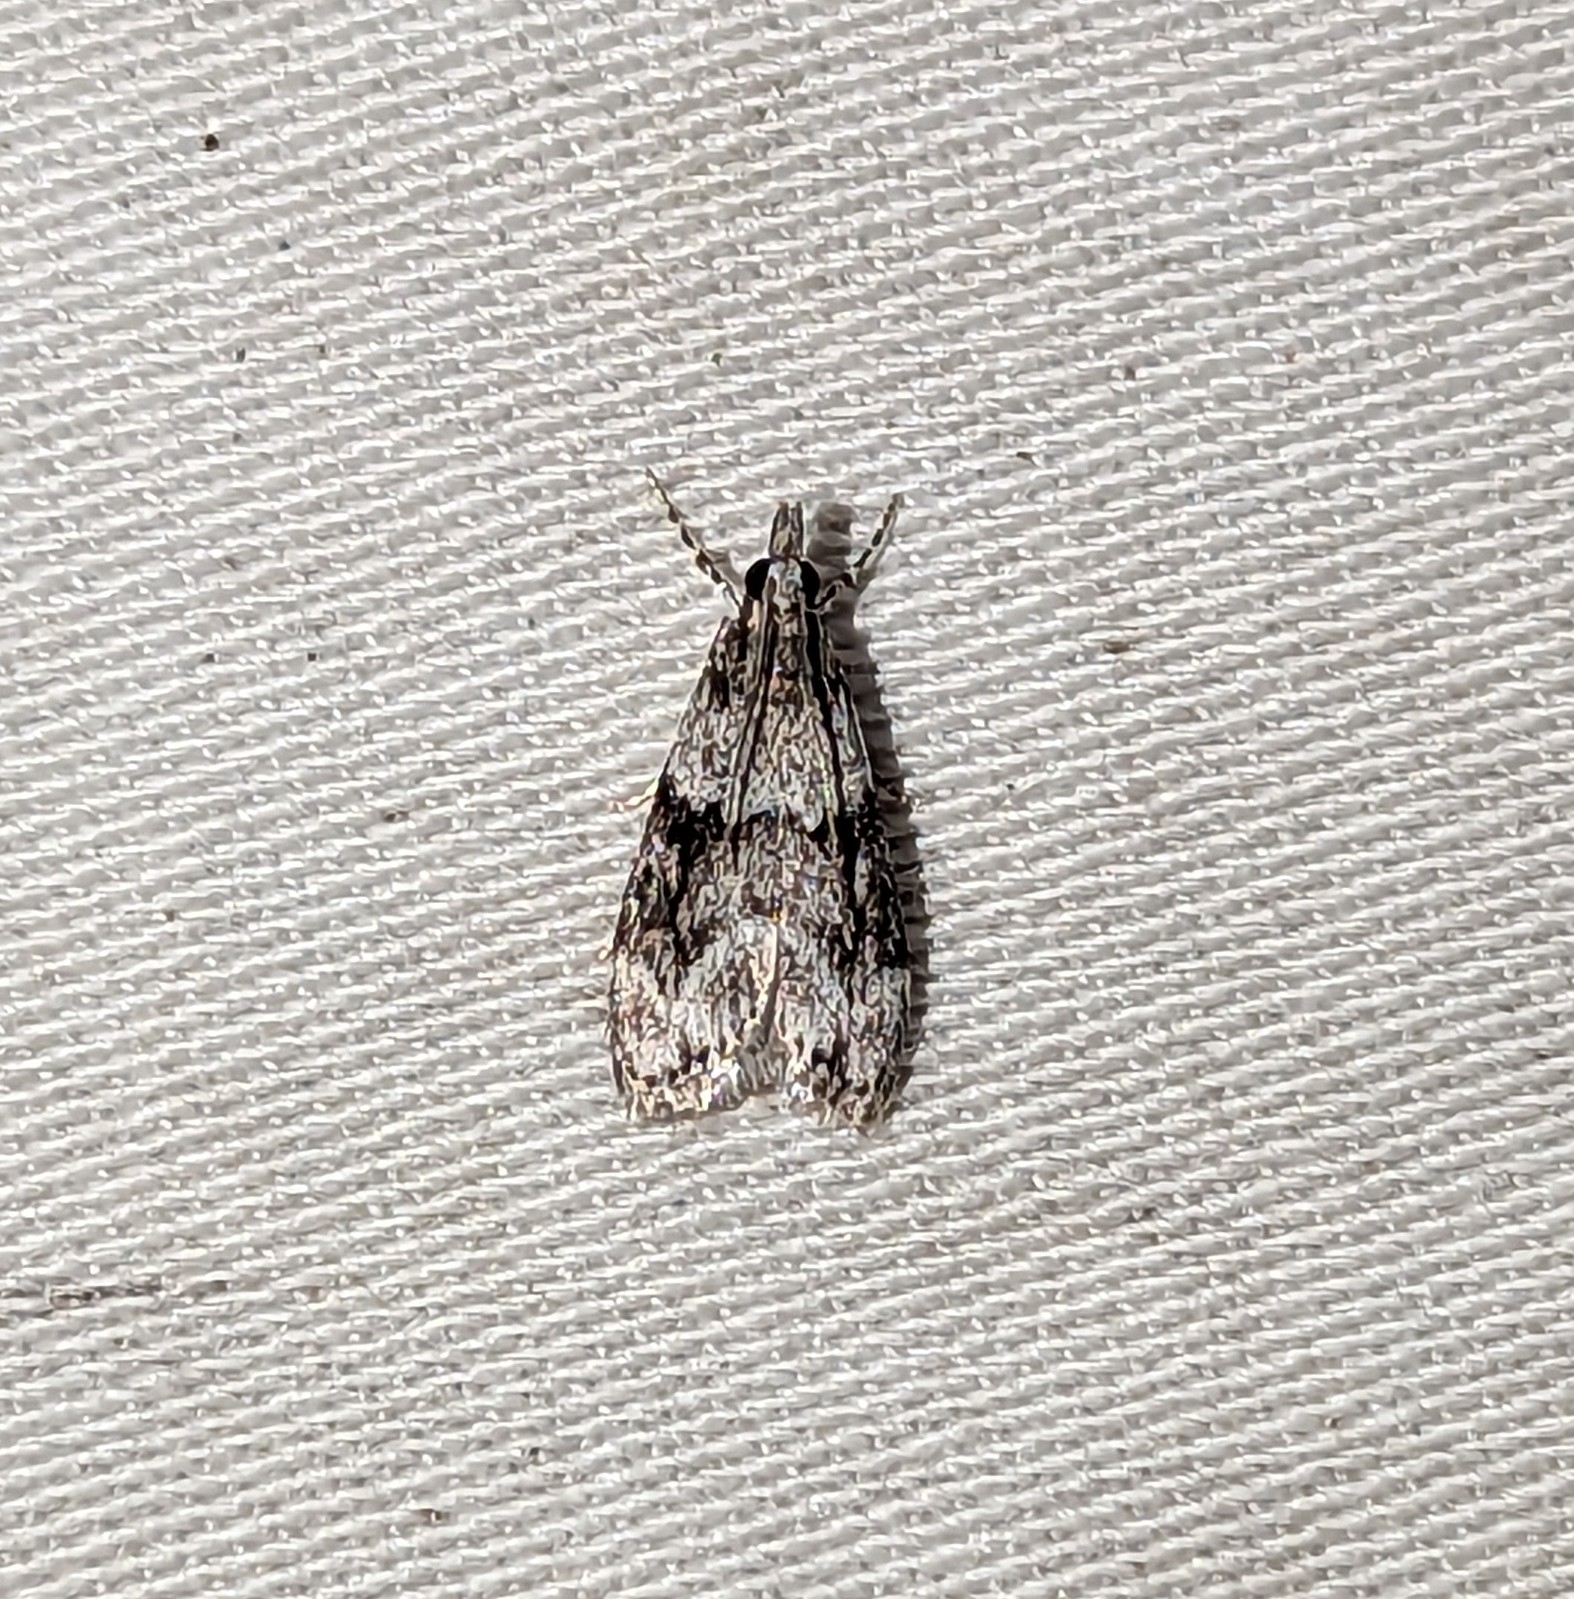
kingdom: Animalia
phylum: Arthropoda
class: Insecta
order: Lepidoptera
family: Crambidae
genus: Eudonia
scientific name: Eudonia spenceri
